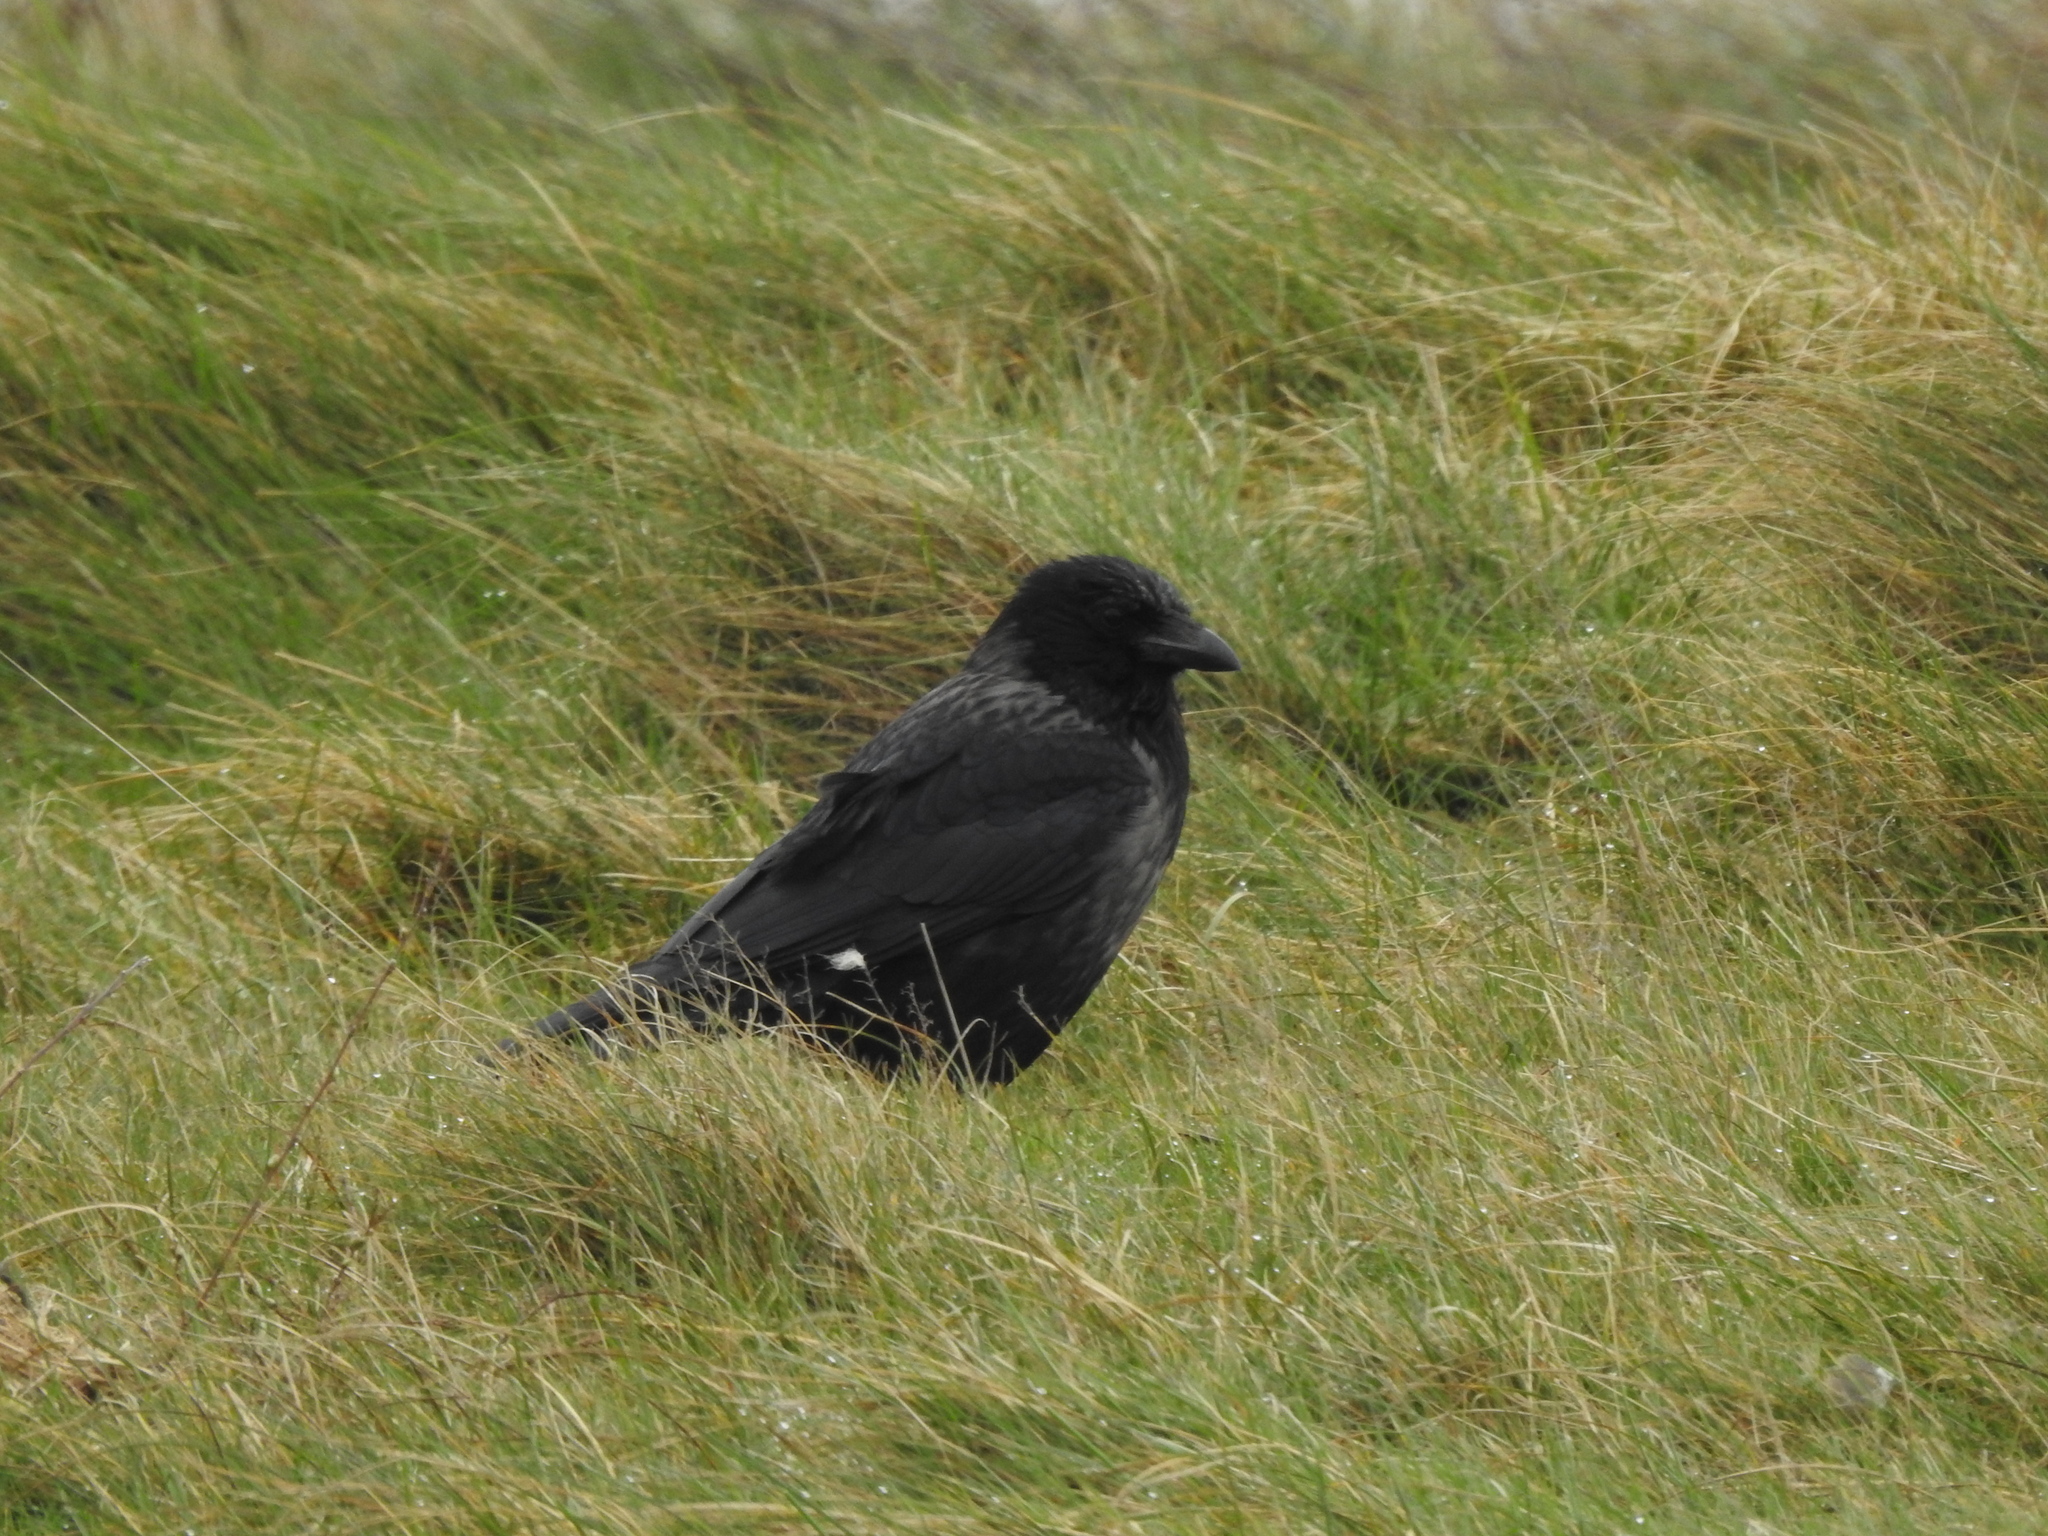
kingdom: Animalia
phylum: Chordata
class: Aves
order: Passeriformes
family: Corvidae
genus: Corvus
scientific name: Corvus
